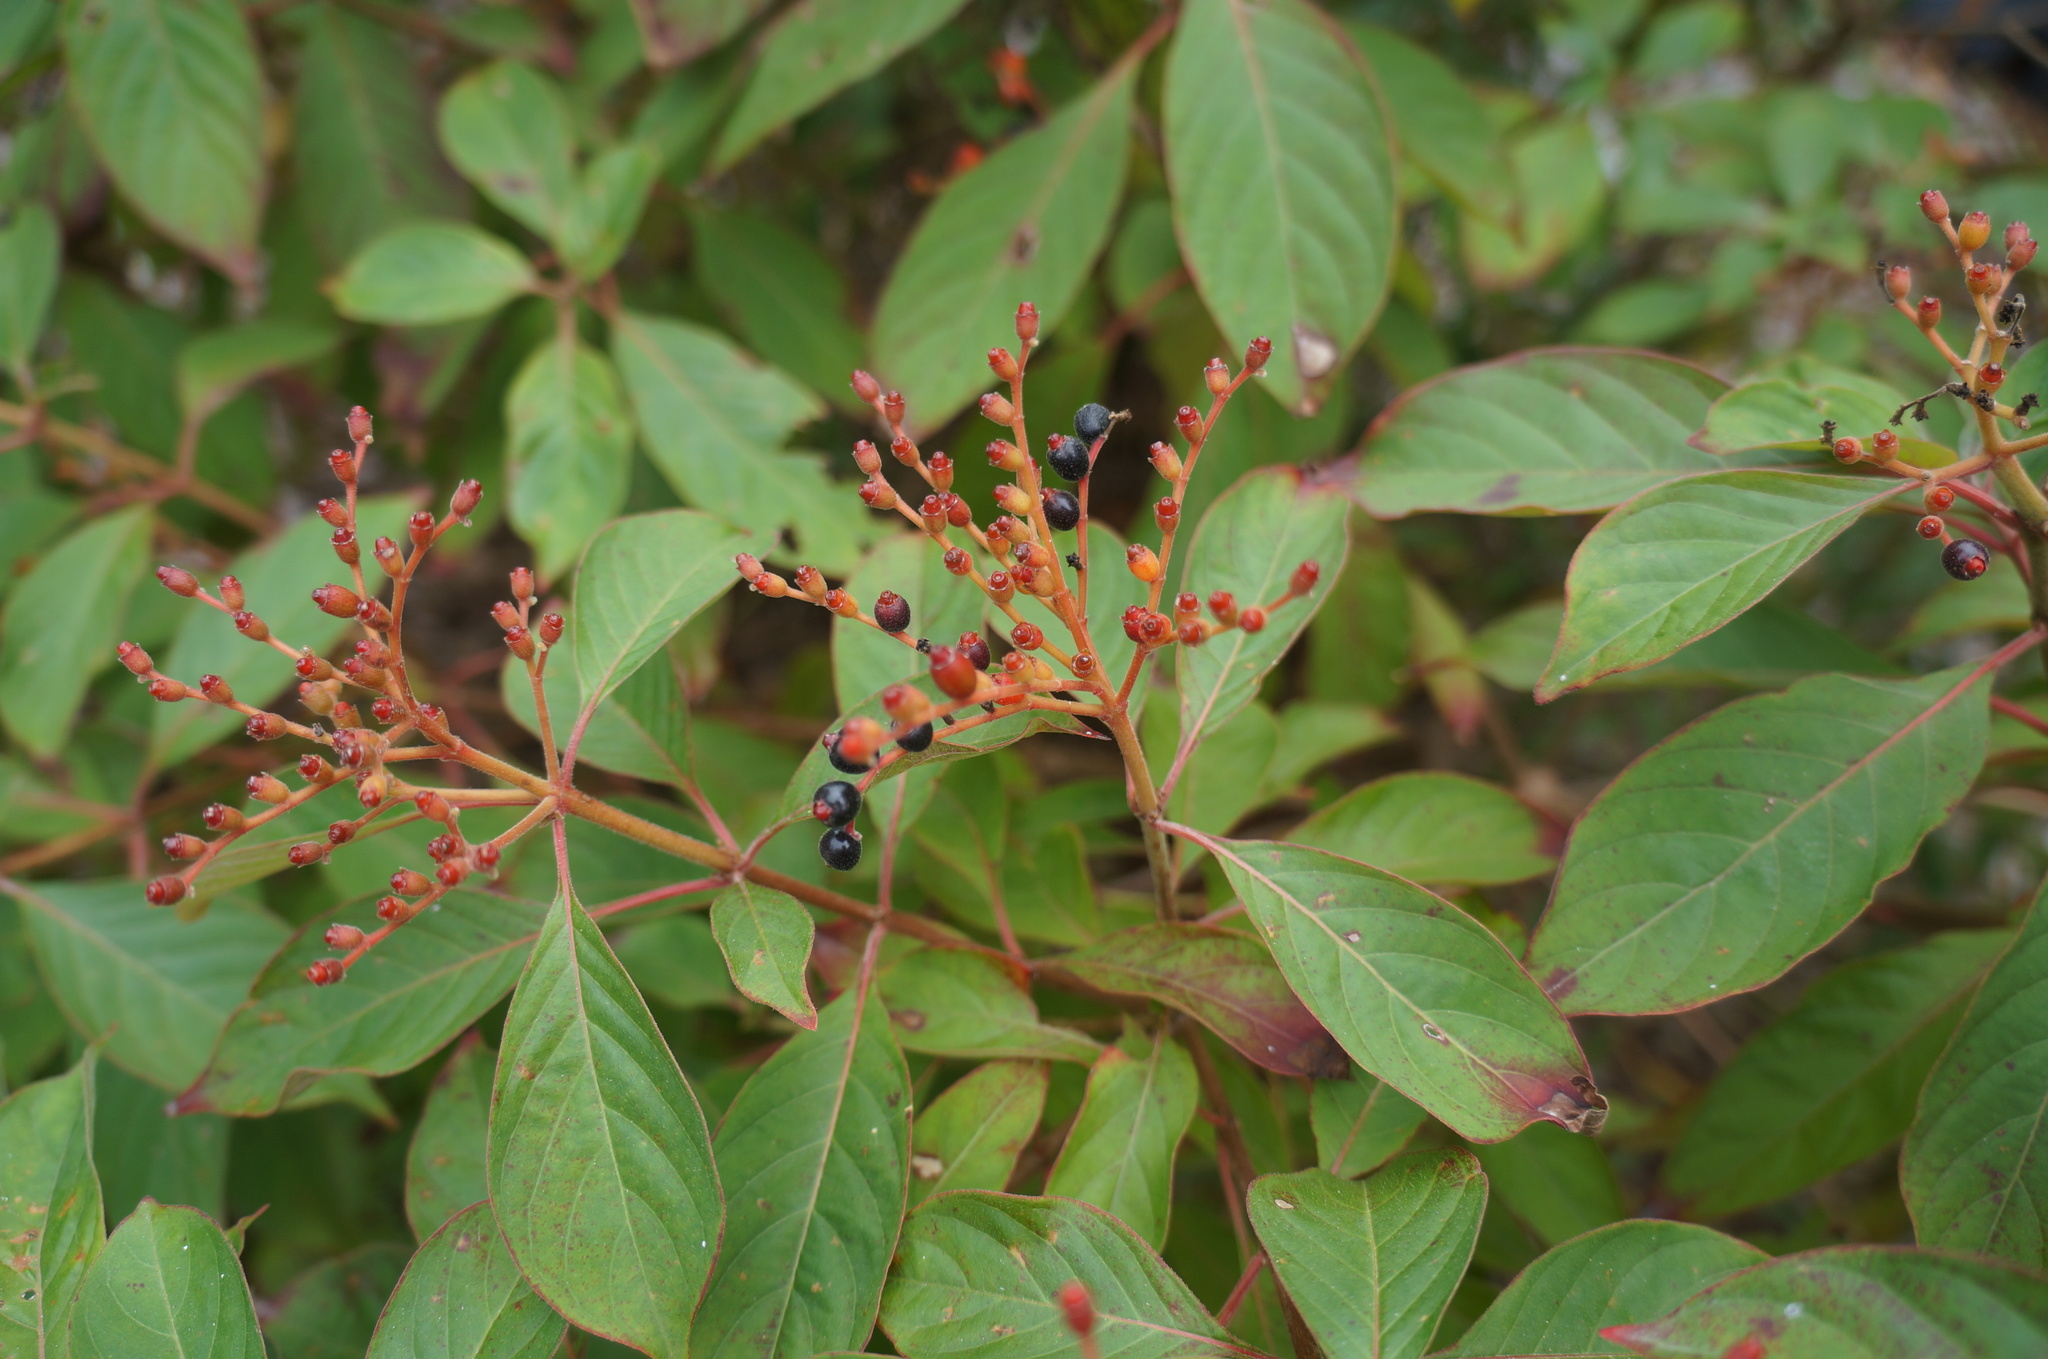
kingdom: Plantae
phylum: Tracheophyta
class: Magnoliopsida
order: Gentianales
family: Rubiaceae
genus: Hamelia
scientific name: Hamelia patens
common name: Redhead
